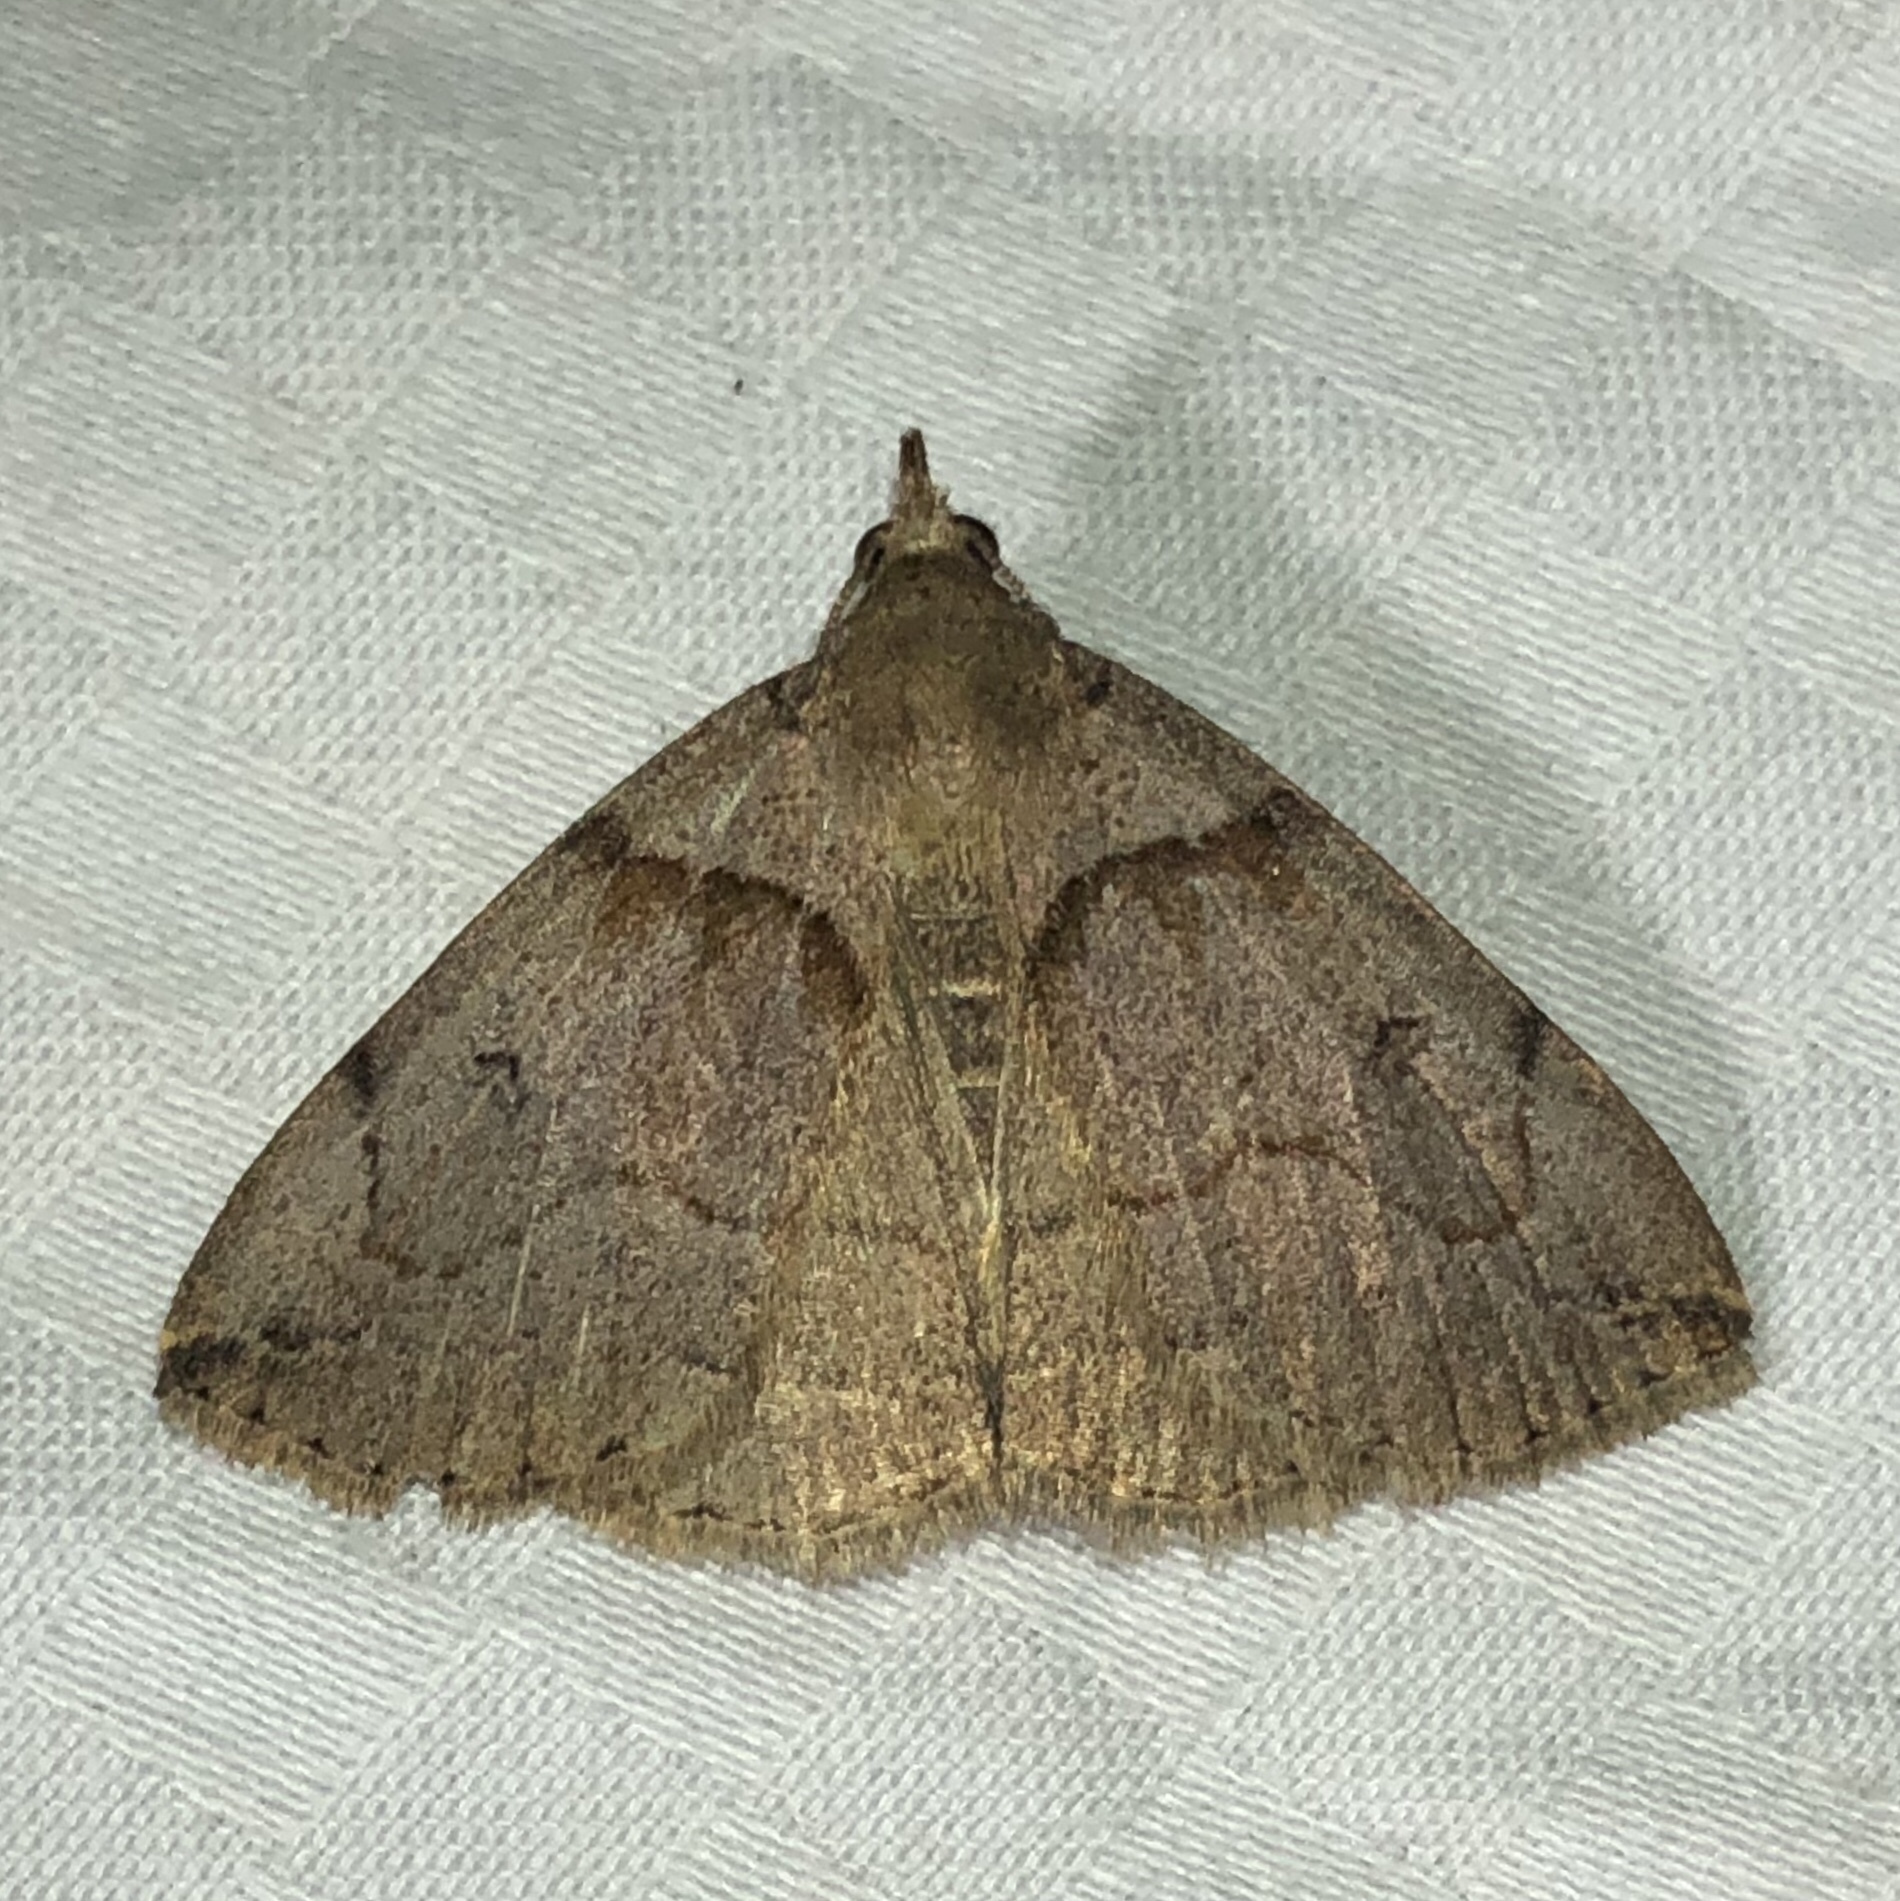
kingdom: Animalia
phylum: Arthropoda
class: Insecta
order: Lepidoptera
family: Erebidae
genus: Zanclognatha
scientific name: Zanclognatha laevigata
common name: Variable fan-foot
